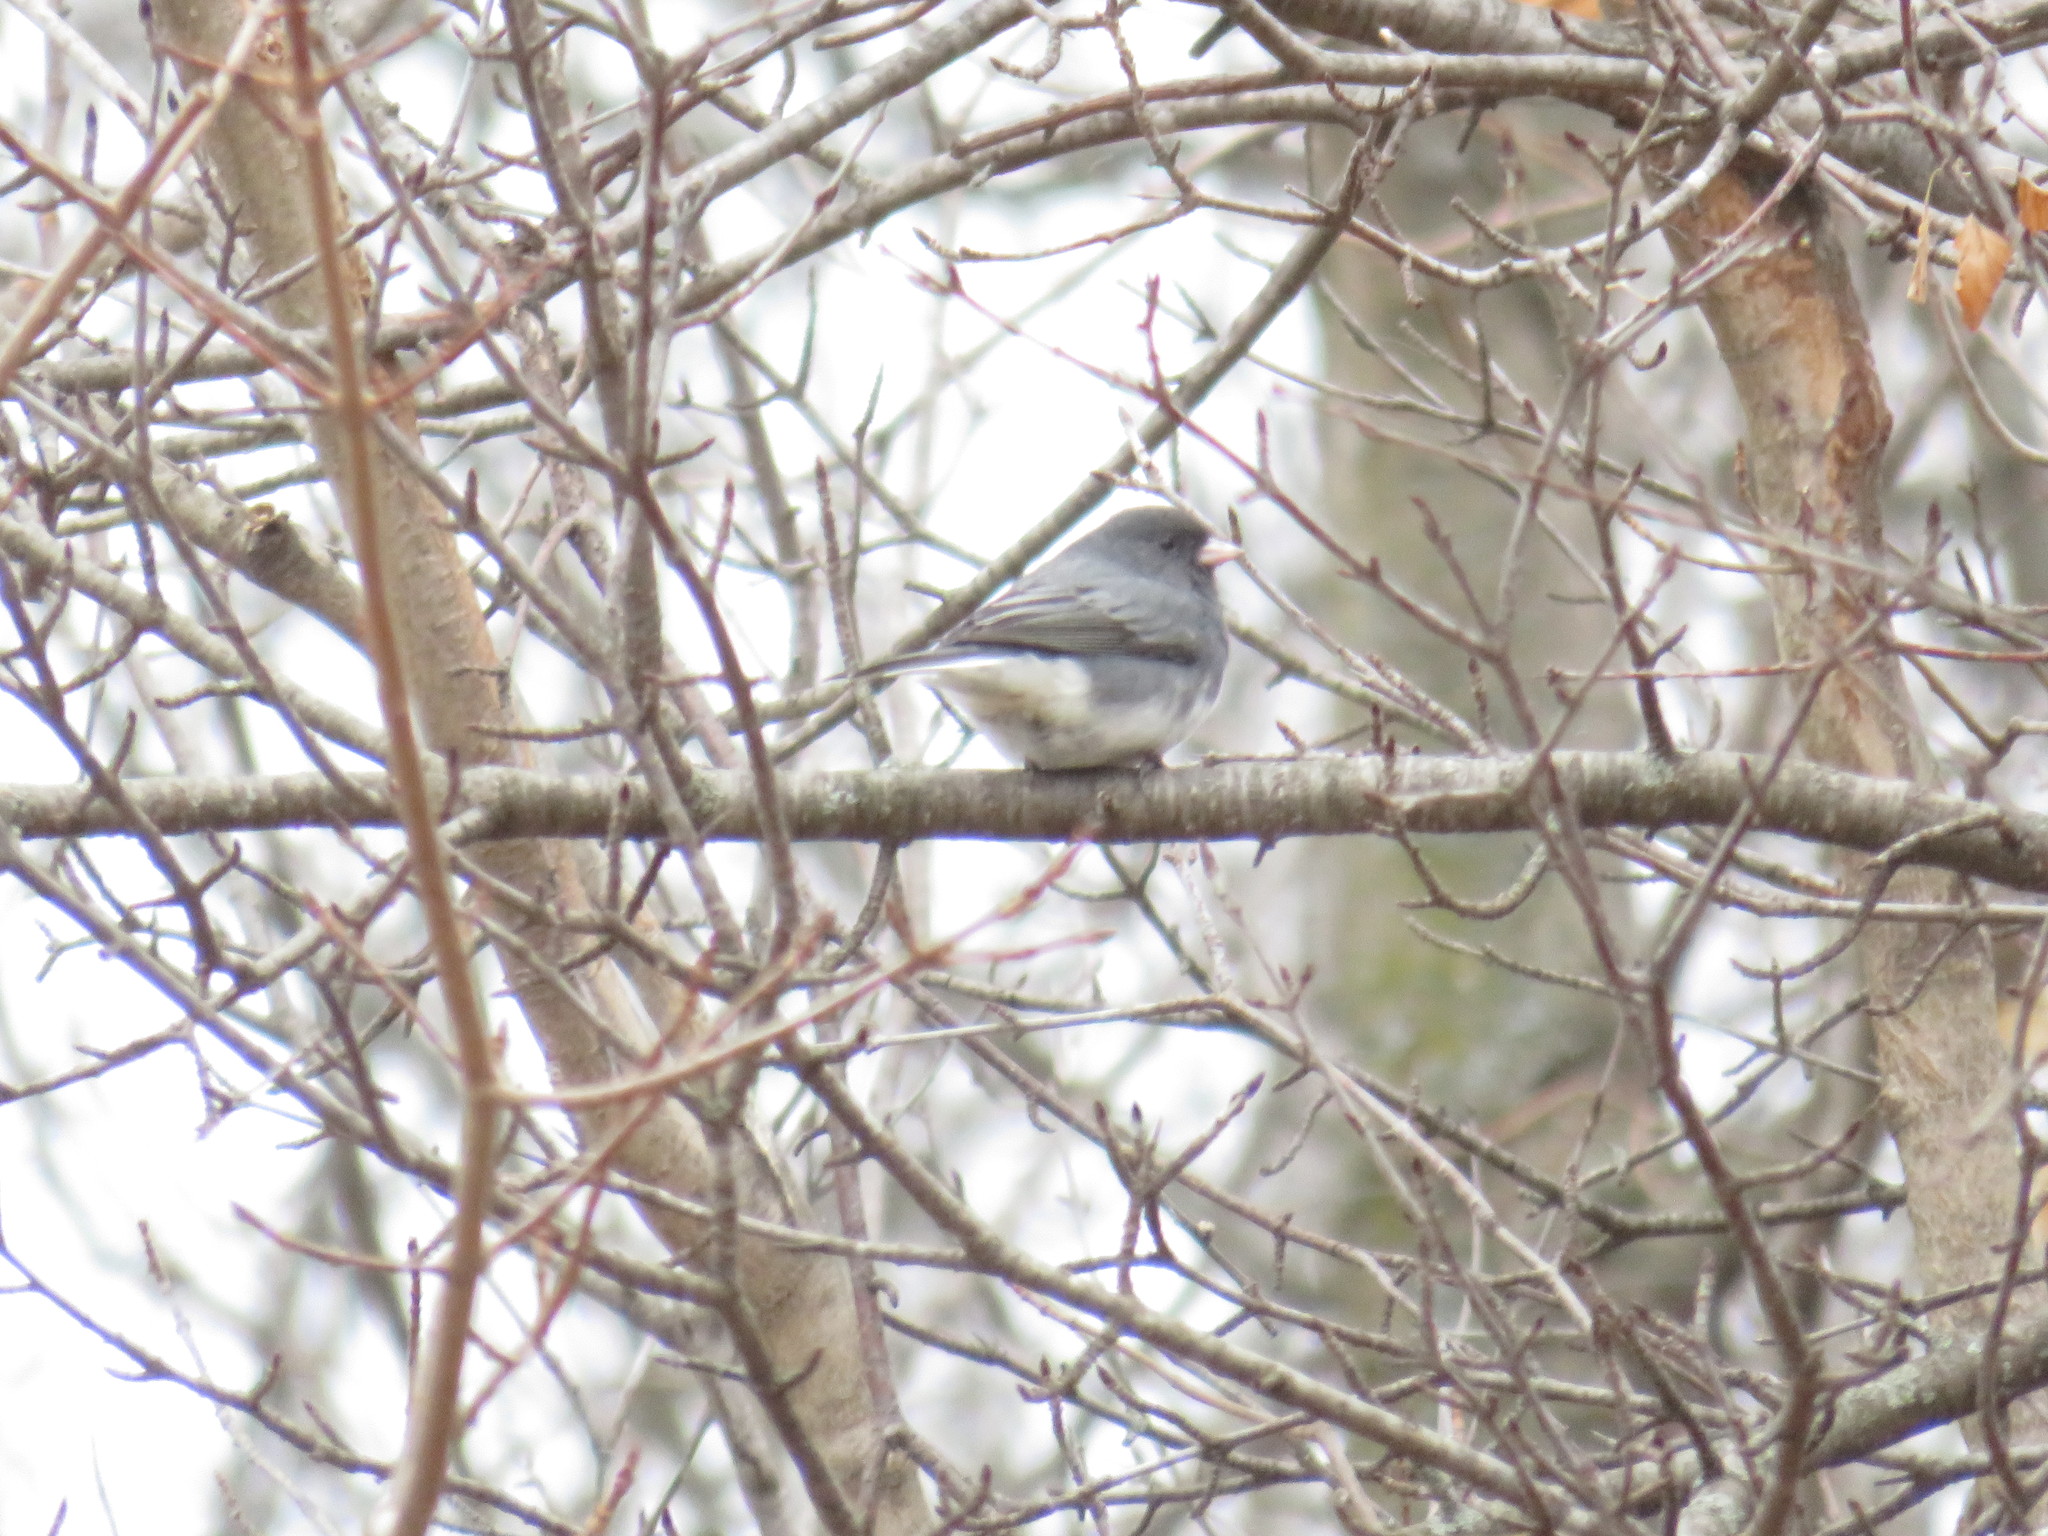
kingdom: Animalia
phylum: Chordata
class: Aves
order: Passeriformes
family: Passerellidae
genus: Junco
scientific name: Junco hyemalis
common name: Dark-eyed junco
